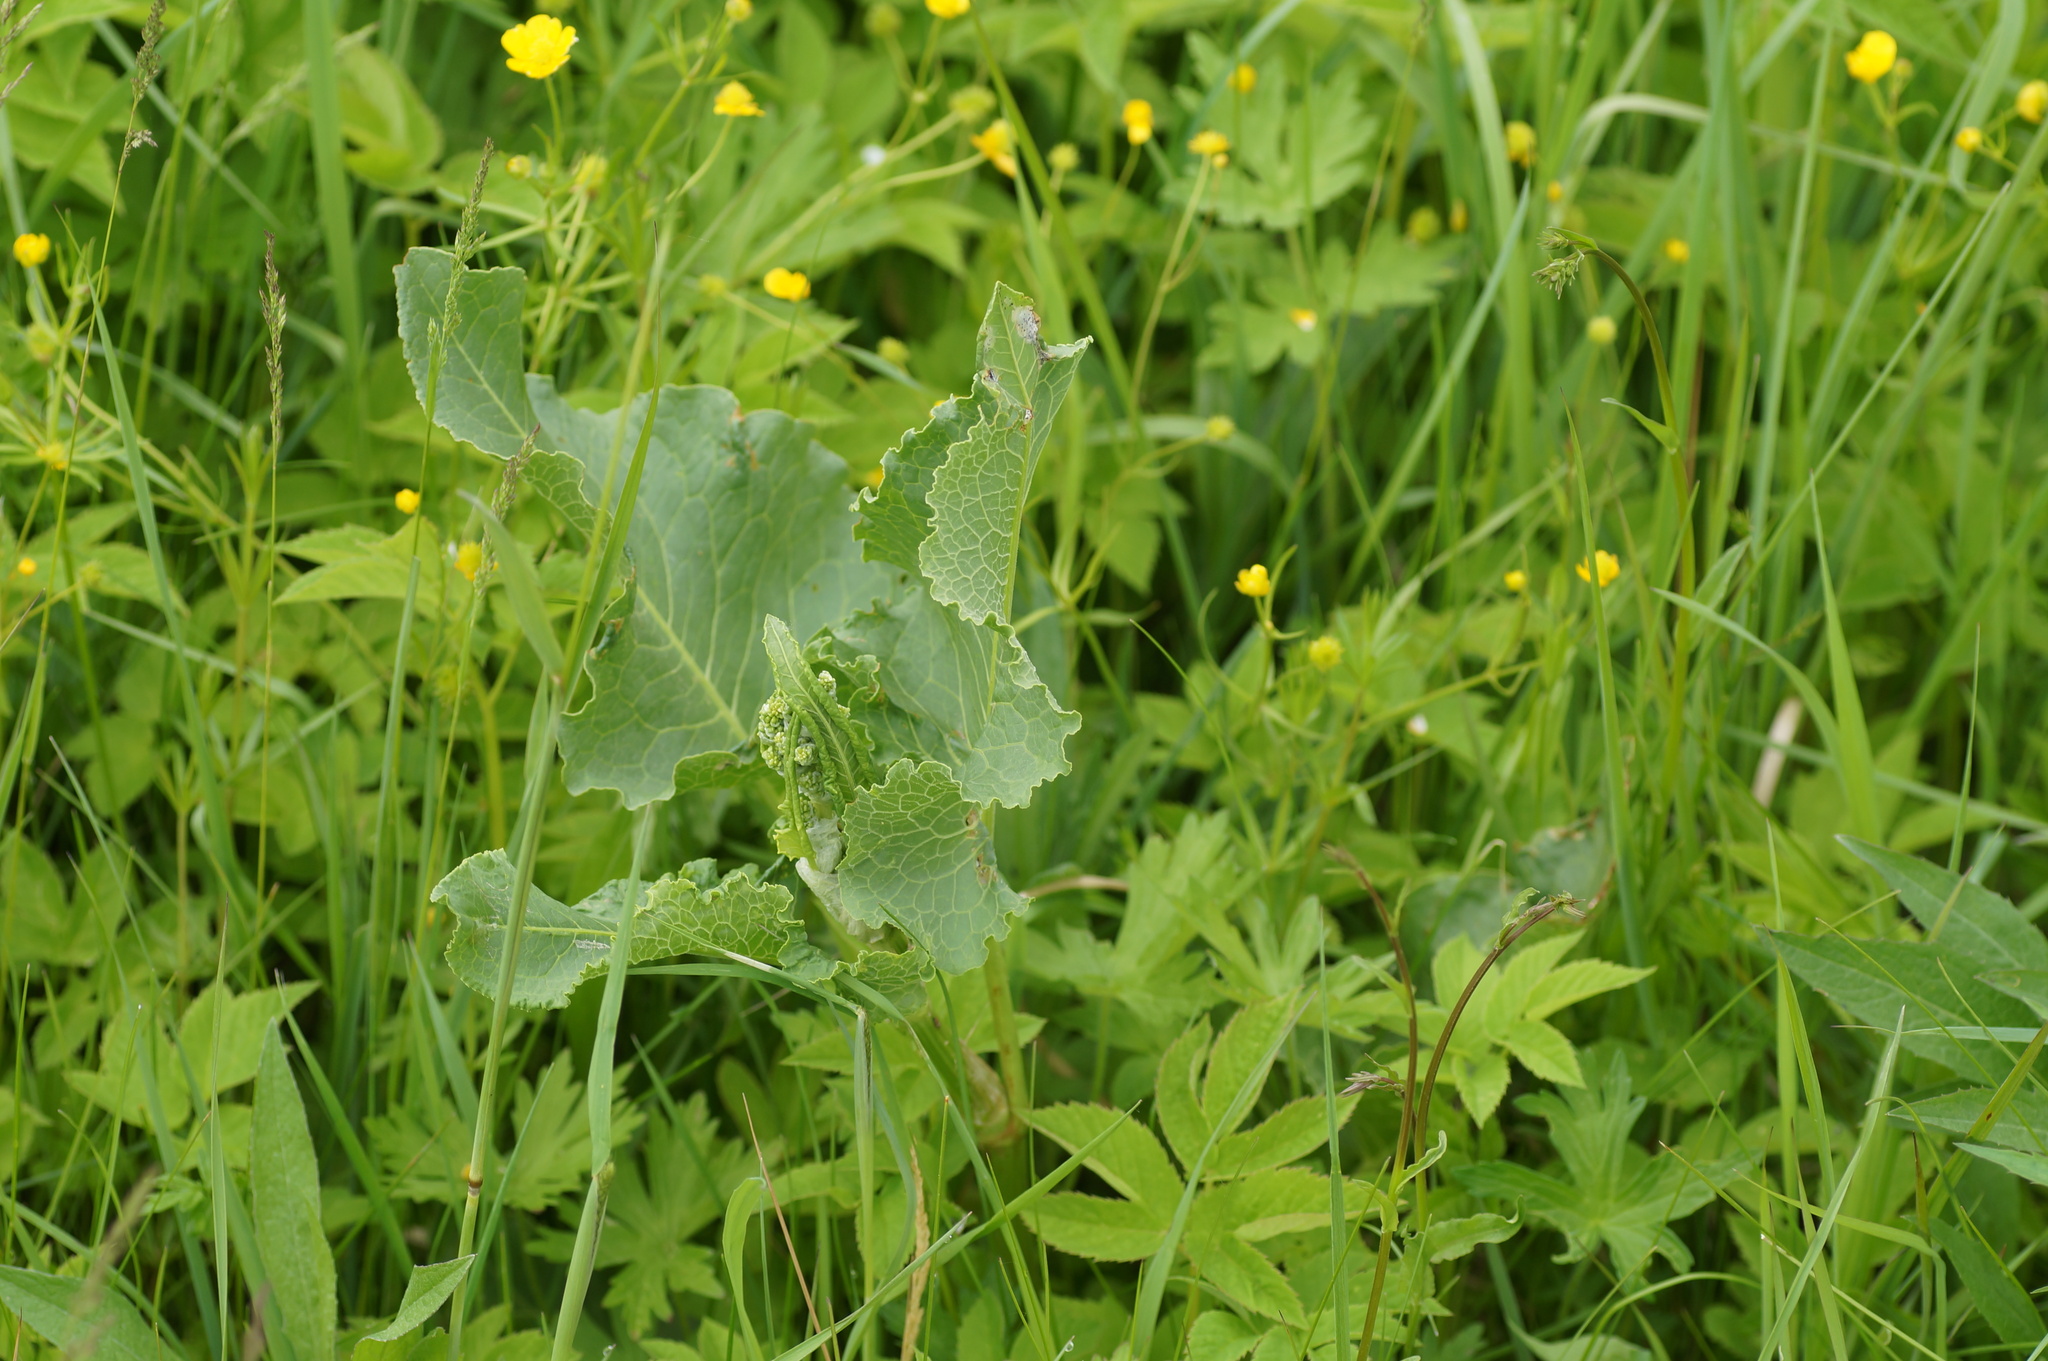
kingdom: Plantae
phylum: Tracheophyta
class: Magnoliopsida
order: Caryophyllales
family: Polygonaceae
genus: Rumex
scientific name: Rumex confertus
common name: Russian dock
